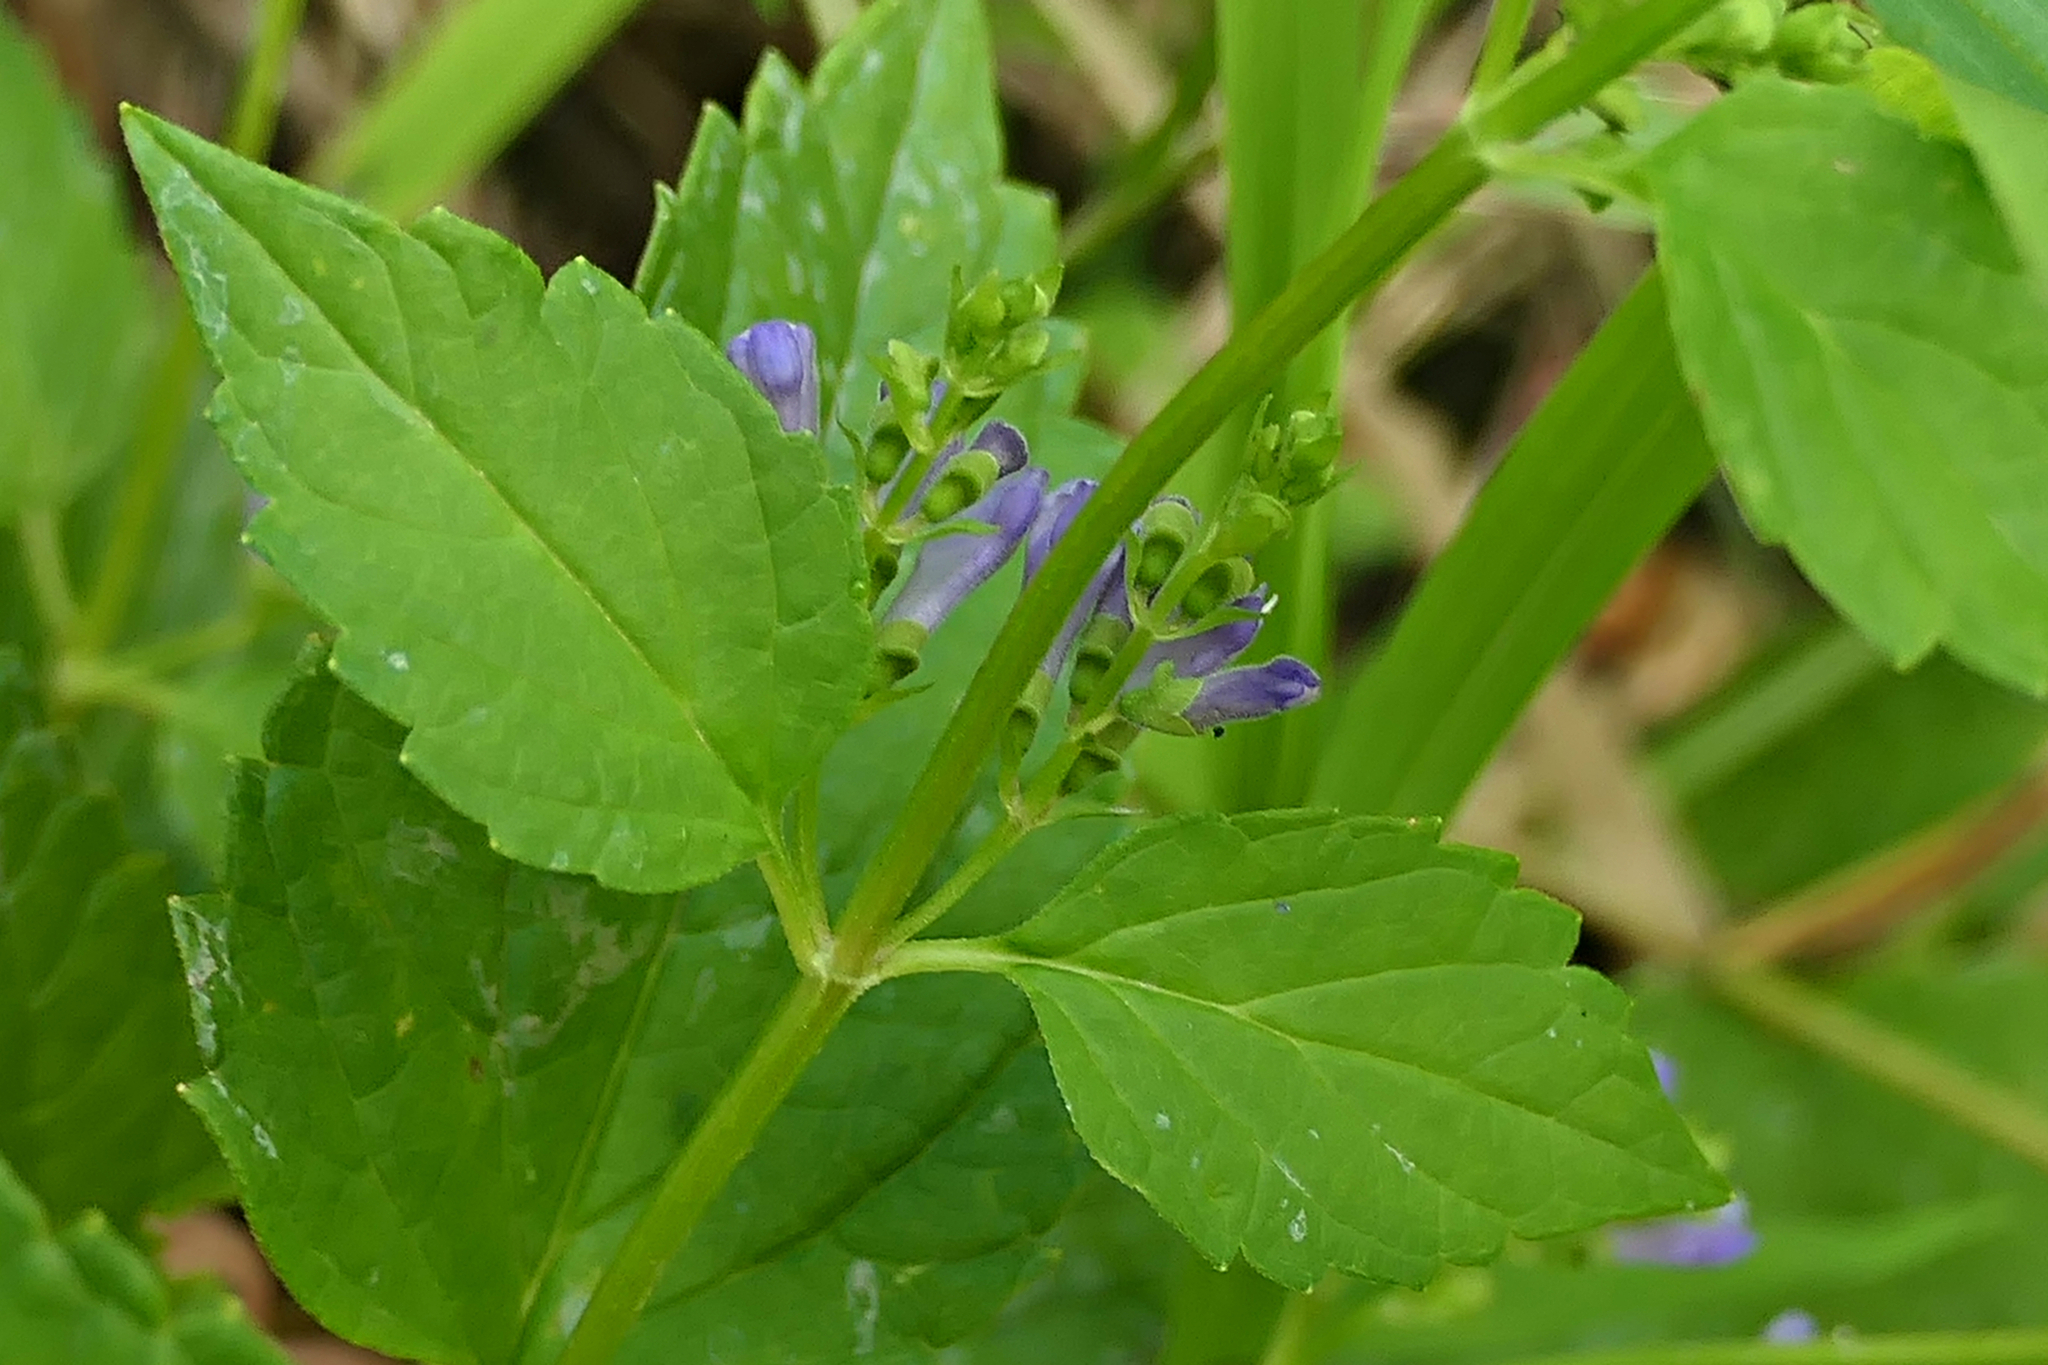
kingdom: Plantae
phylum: Tracheophyta
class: Magnoliopsida
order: Lamiales
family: Lamiaceae
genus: Scutellaria
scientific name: Scutellaria lateriflora
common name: Blue skullcap
